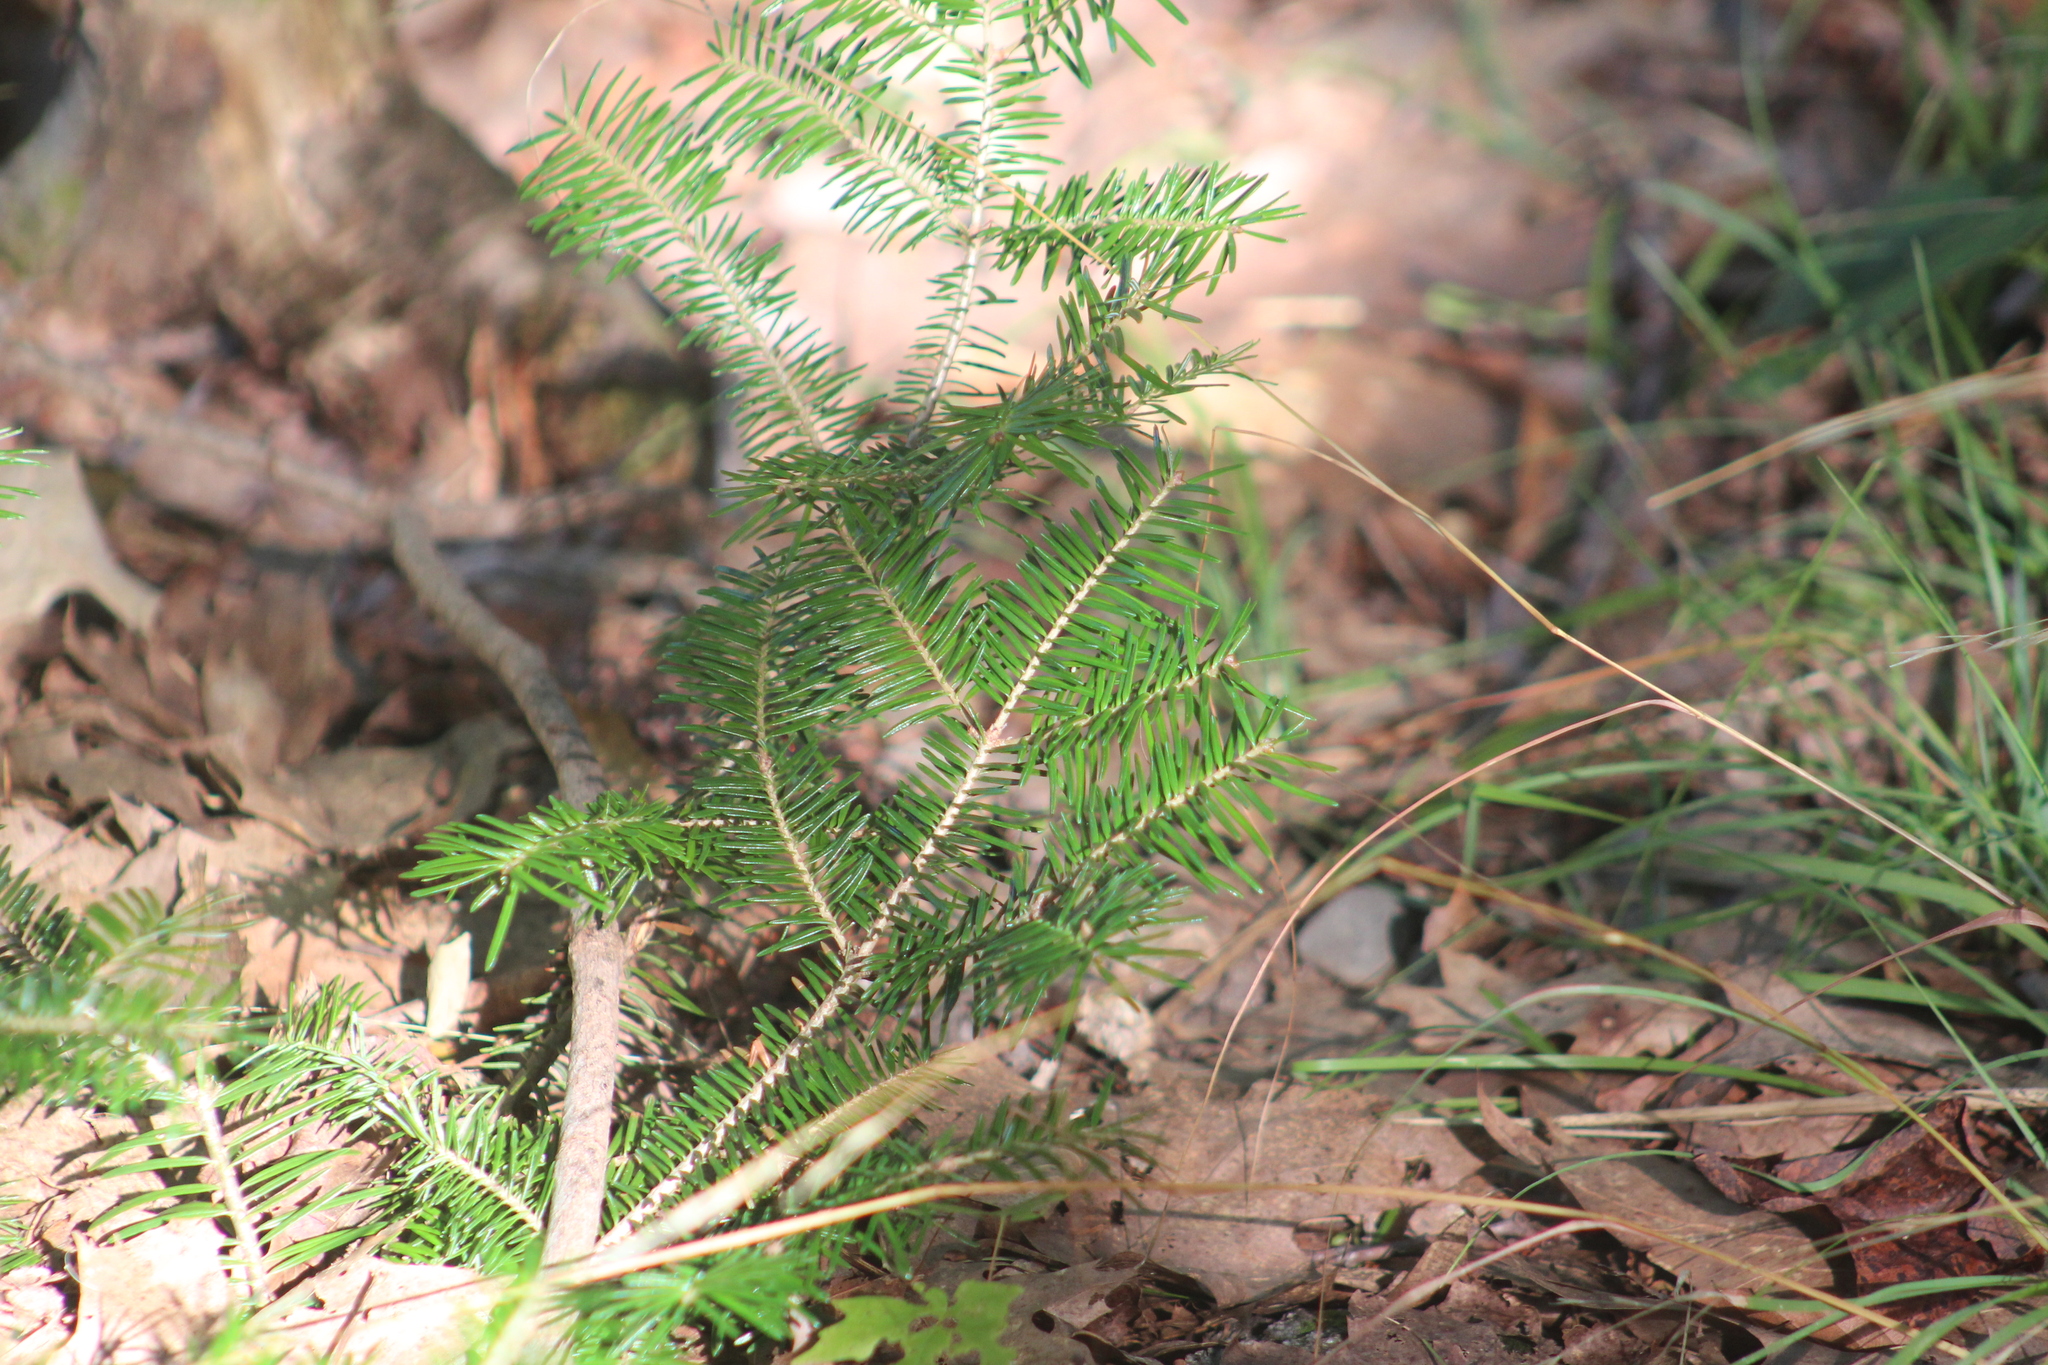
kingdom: Plantae
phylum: Tracheophyta
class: Pinopsida
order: Pinales
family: Pinaceae
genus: Abies
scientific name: Abies balsamea
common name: Balsam fir
